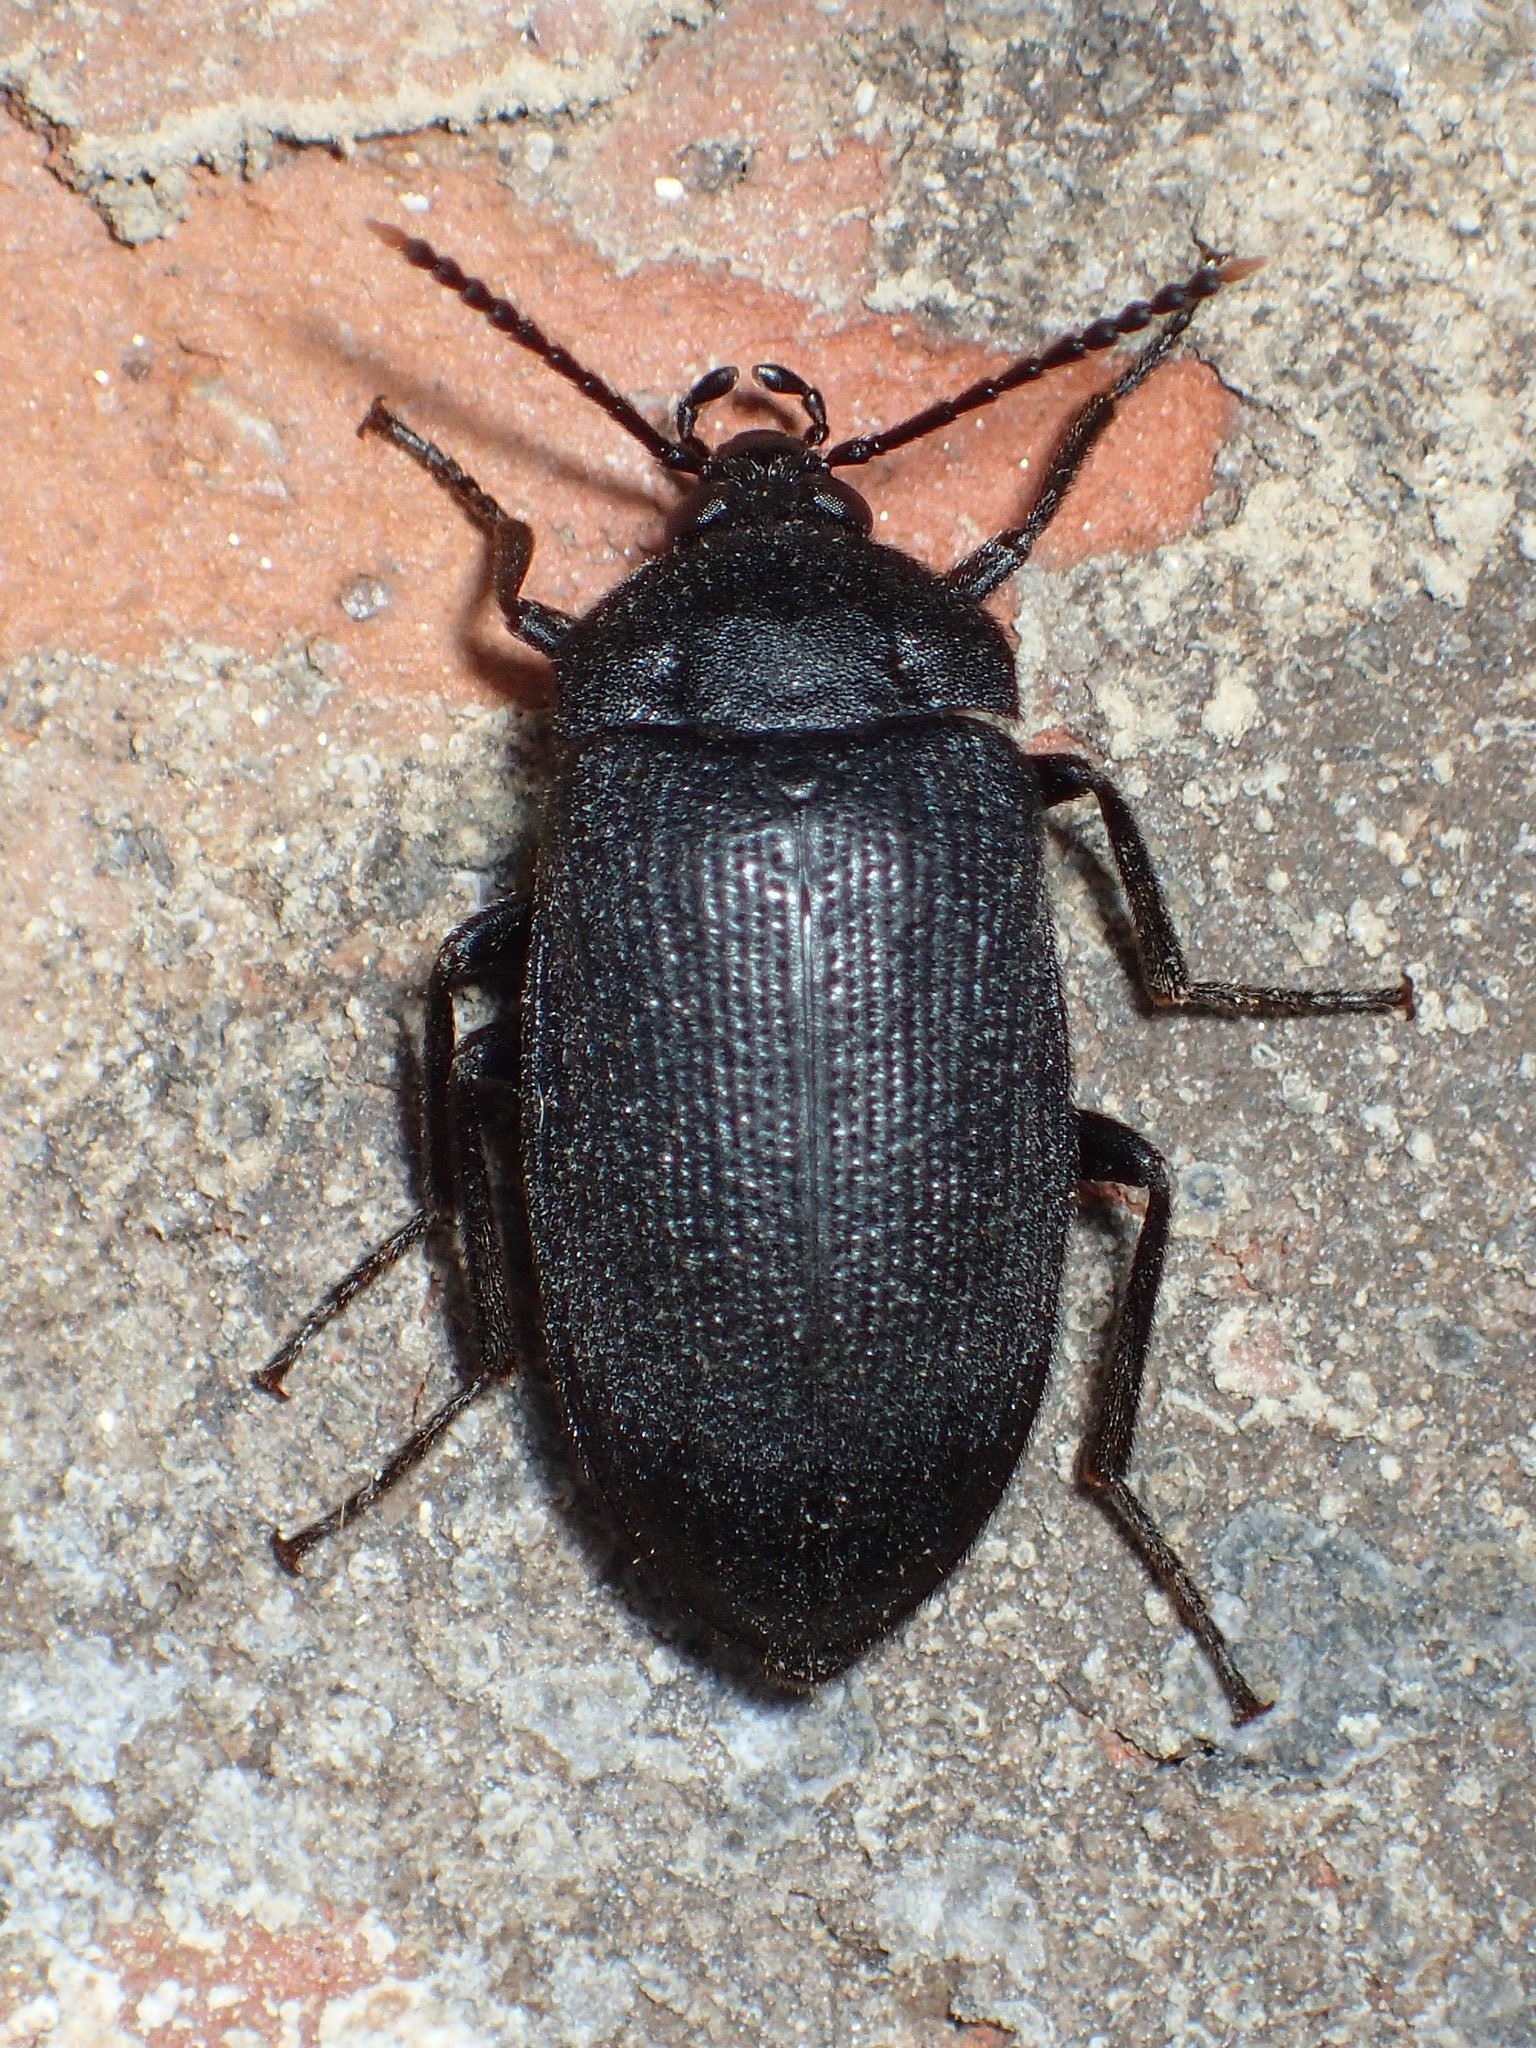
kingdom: Animalia
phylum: Arthropoda
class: Insecta
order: Coleoptera
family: Tetratomidae
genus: Penthe
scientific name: Penthe pimelia
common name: Velvety bark beetle
